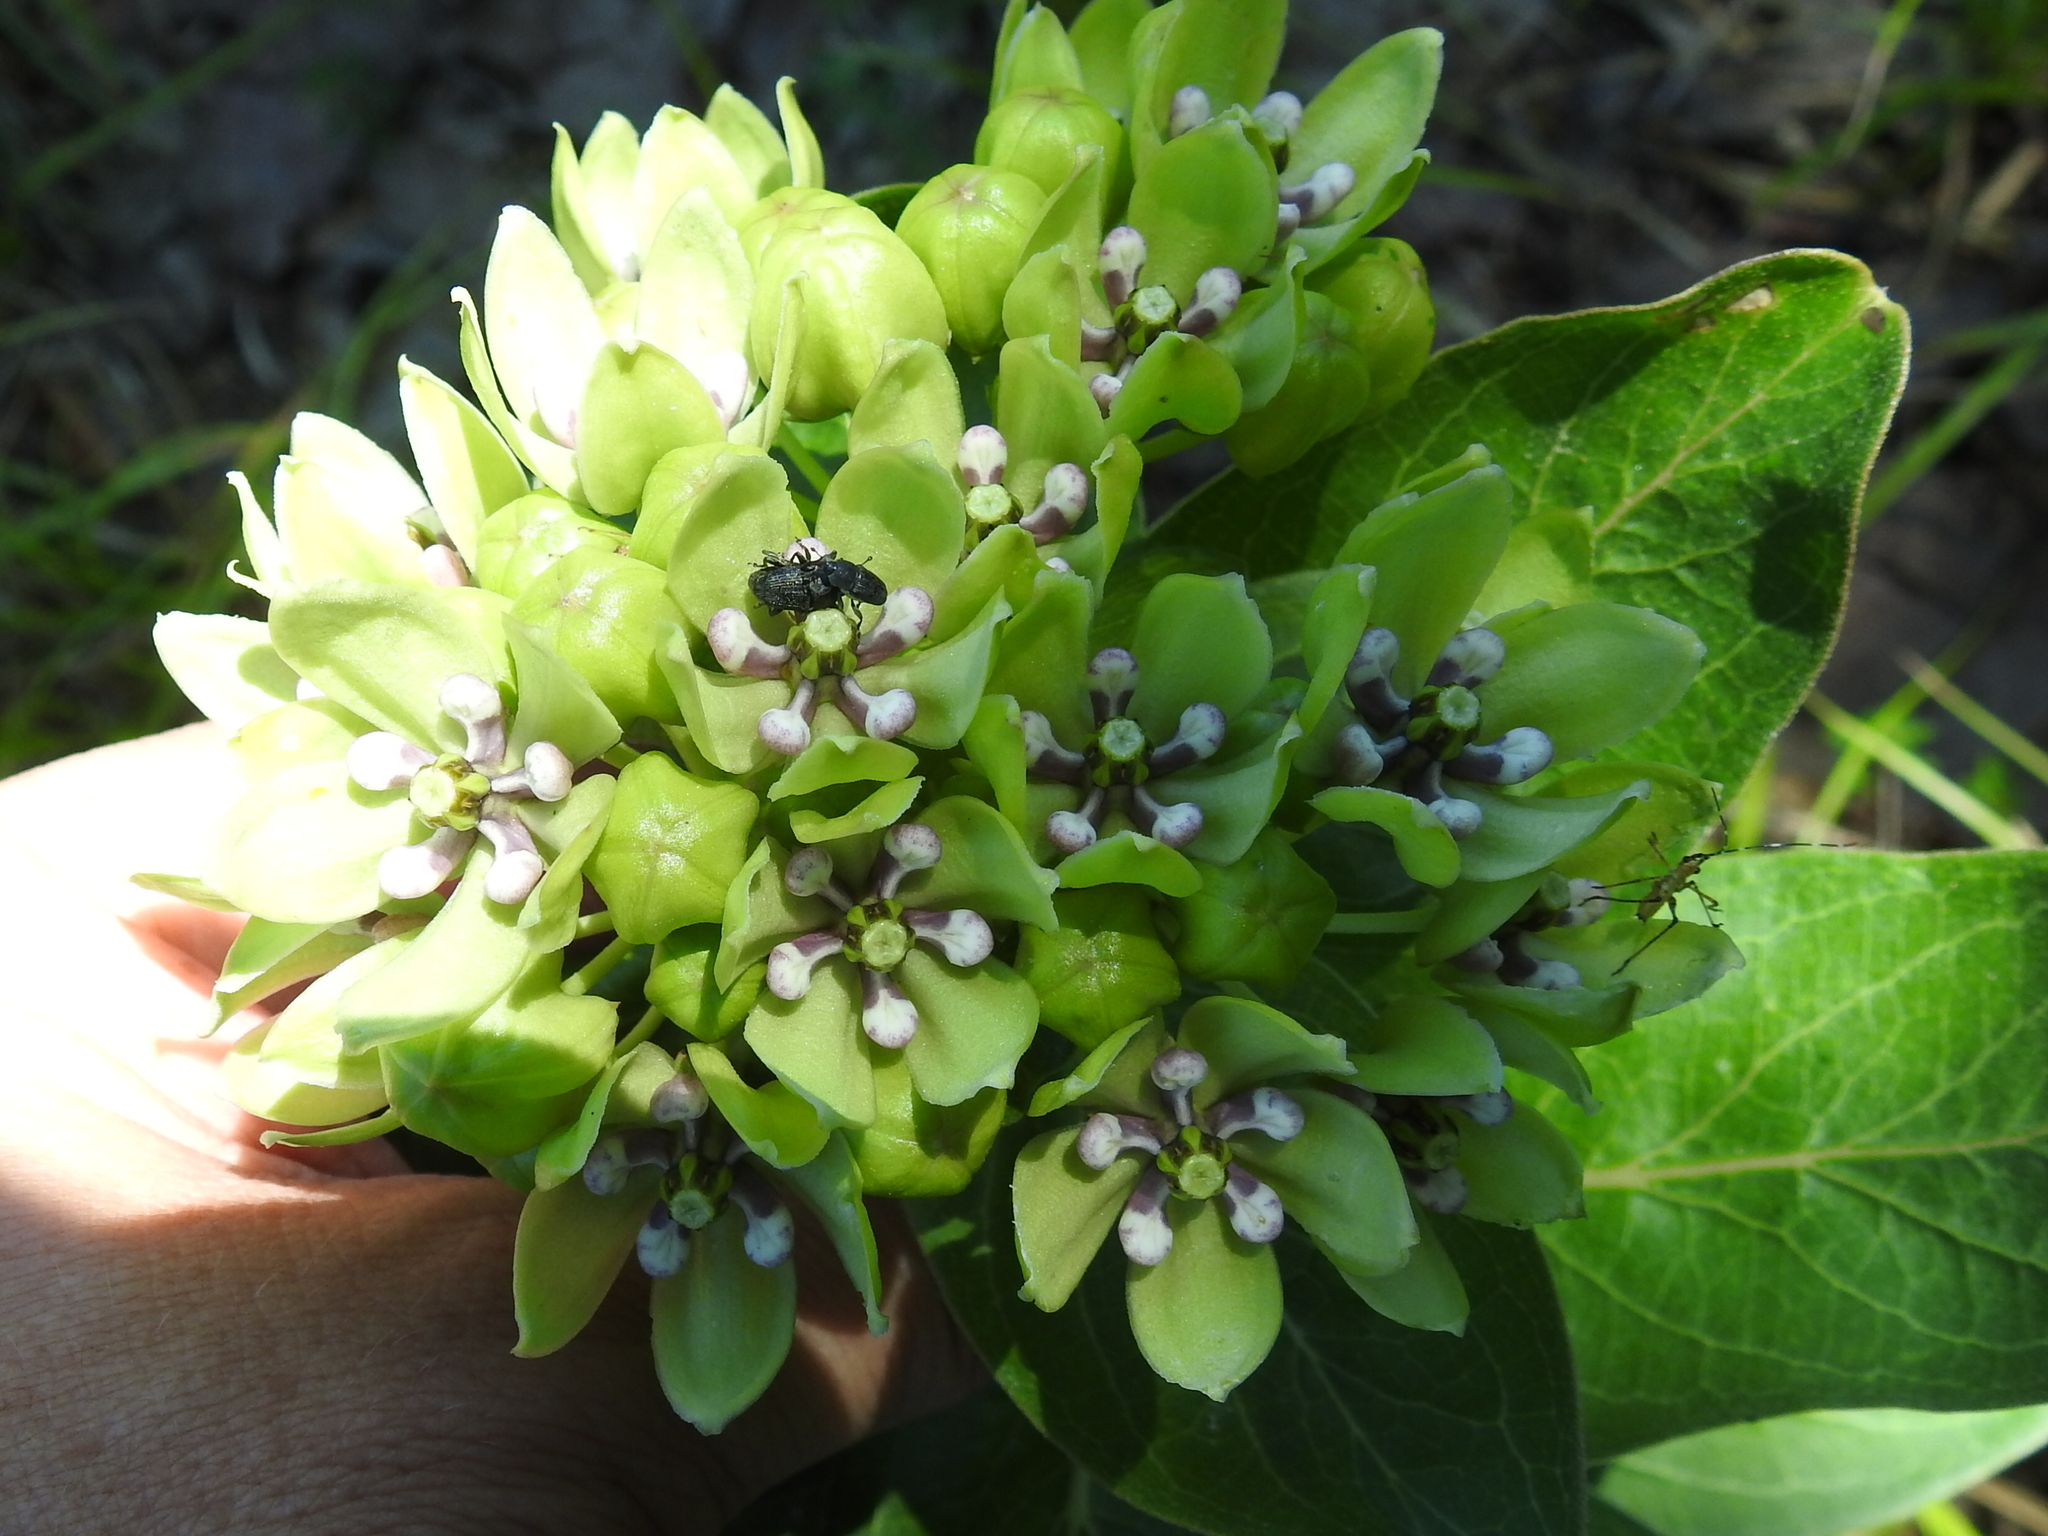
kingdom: Plantae
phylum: Tracheophyta
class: Magnoliopsida
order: Gentianales
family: Apocynaceae
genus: Asclepias
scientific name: Asclepias viridis
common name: Antelope-horns
